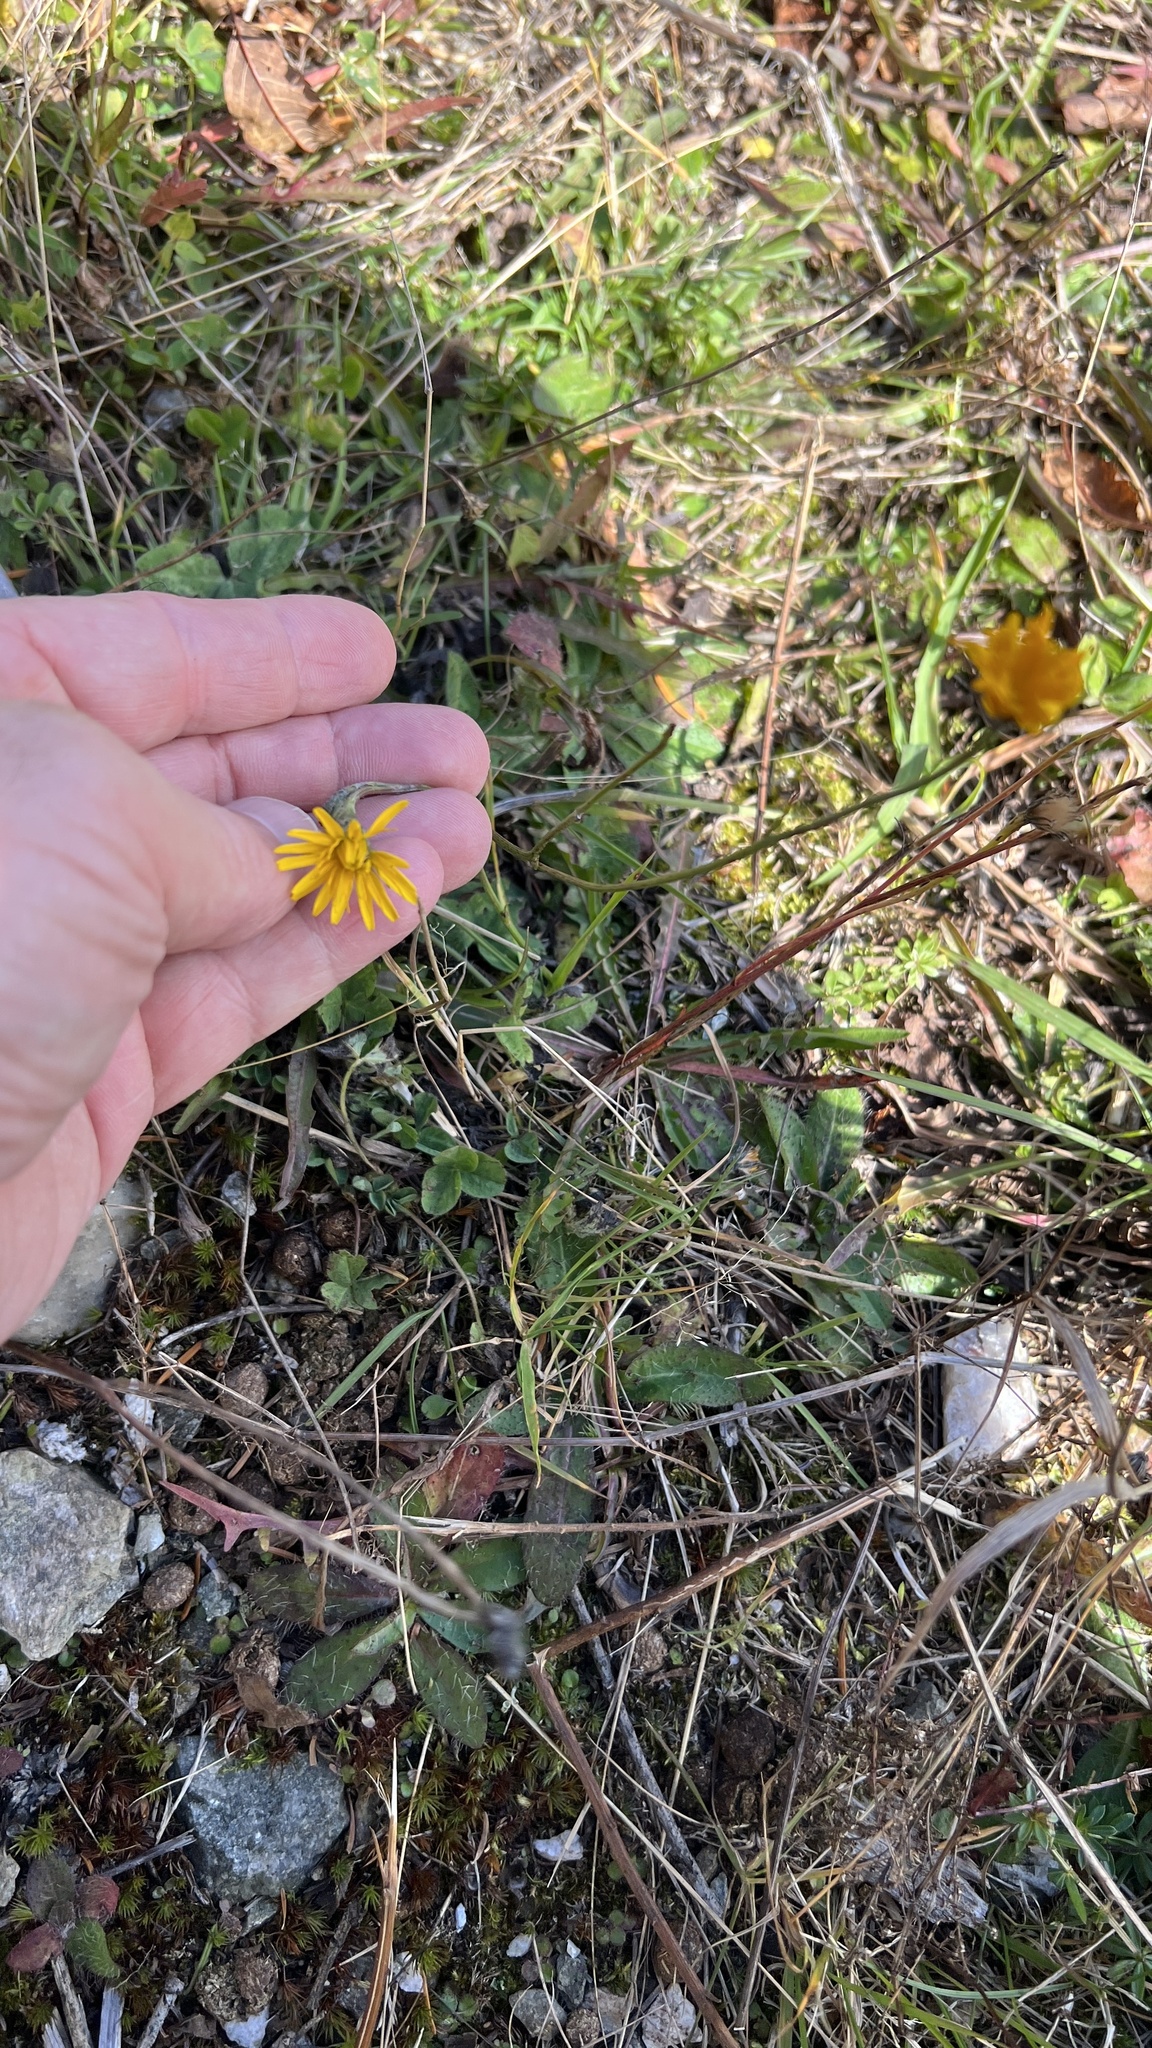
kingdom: Plantae
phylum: Tracheophyta
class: Magnoliopsida
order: Asterales
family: Asteraceae
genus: Scorzoneroides
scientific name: Scorzoneroides autumnalis
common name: Autumn hawkbit
